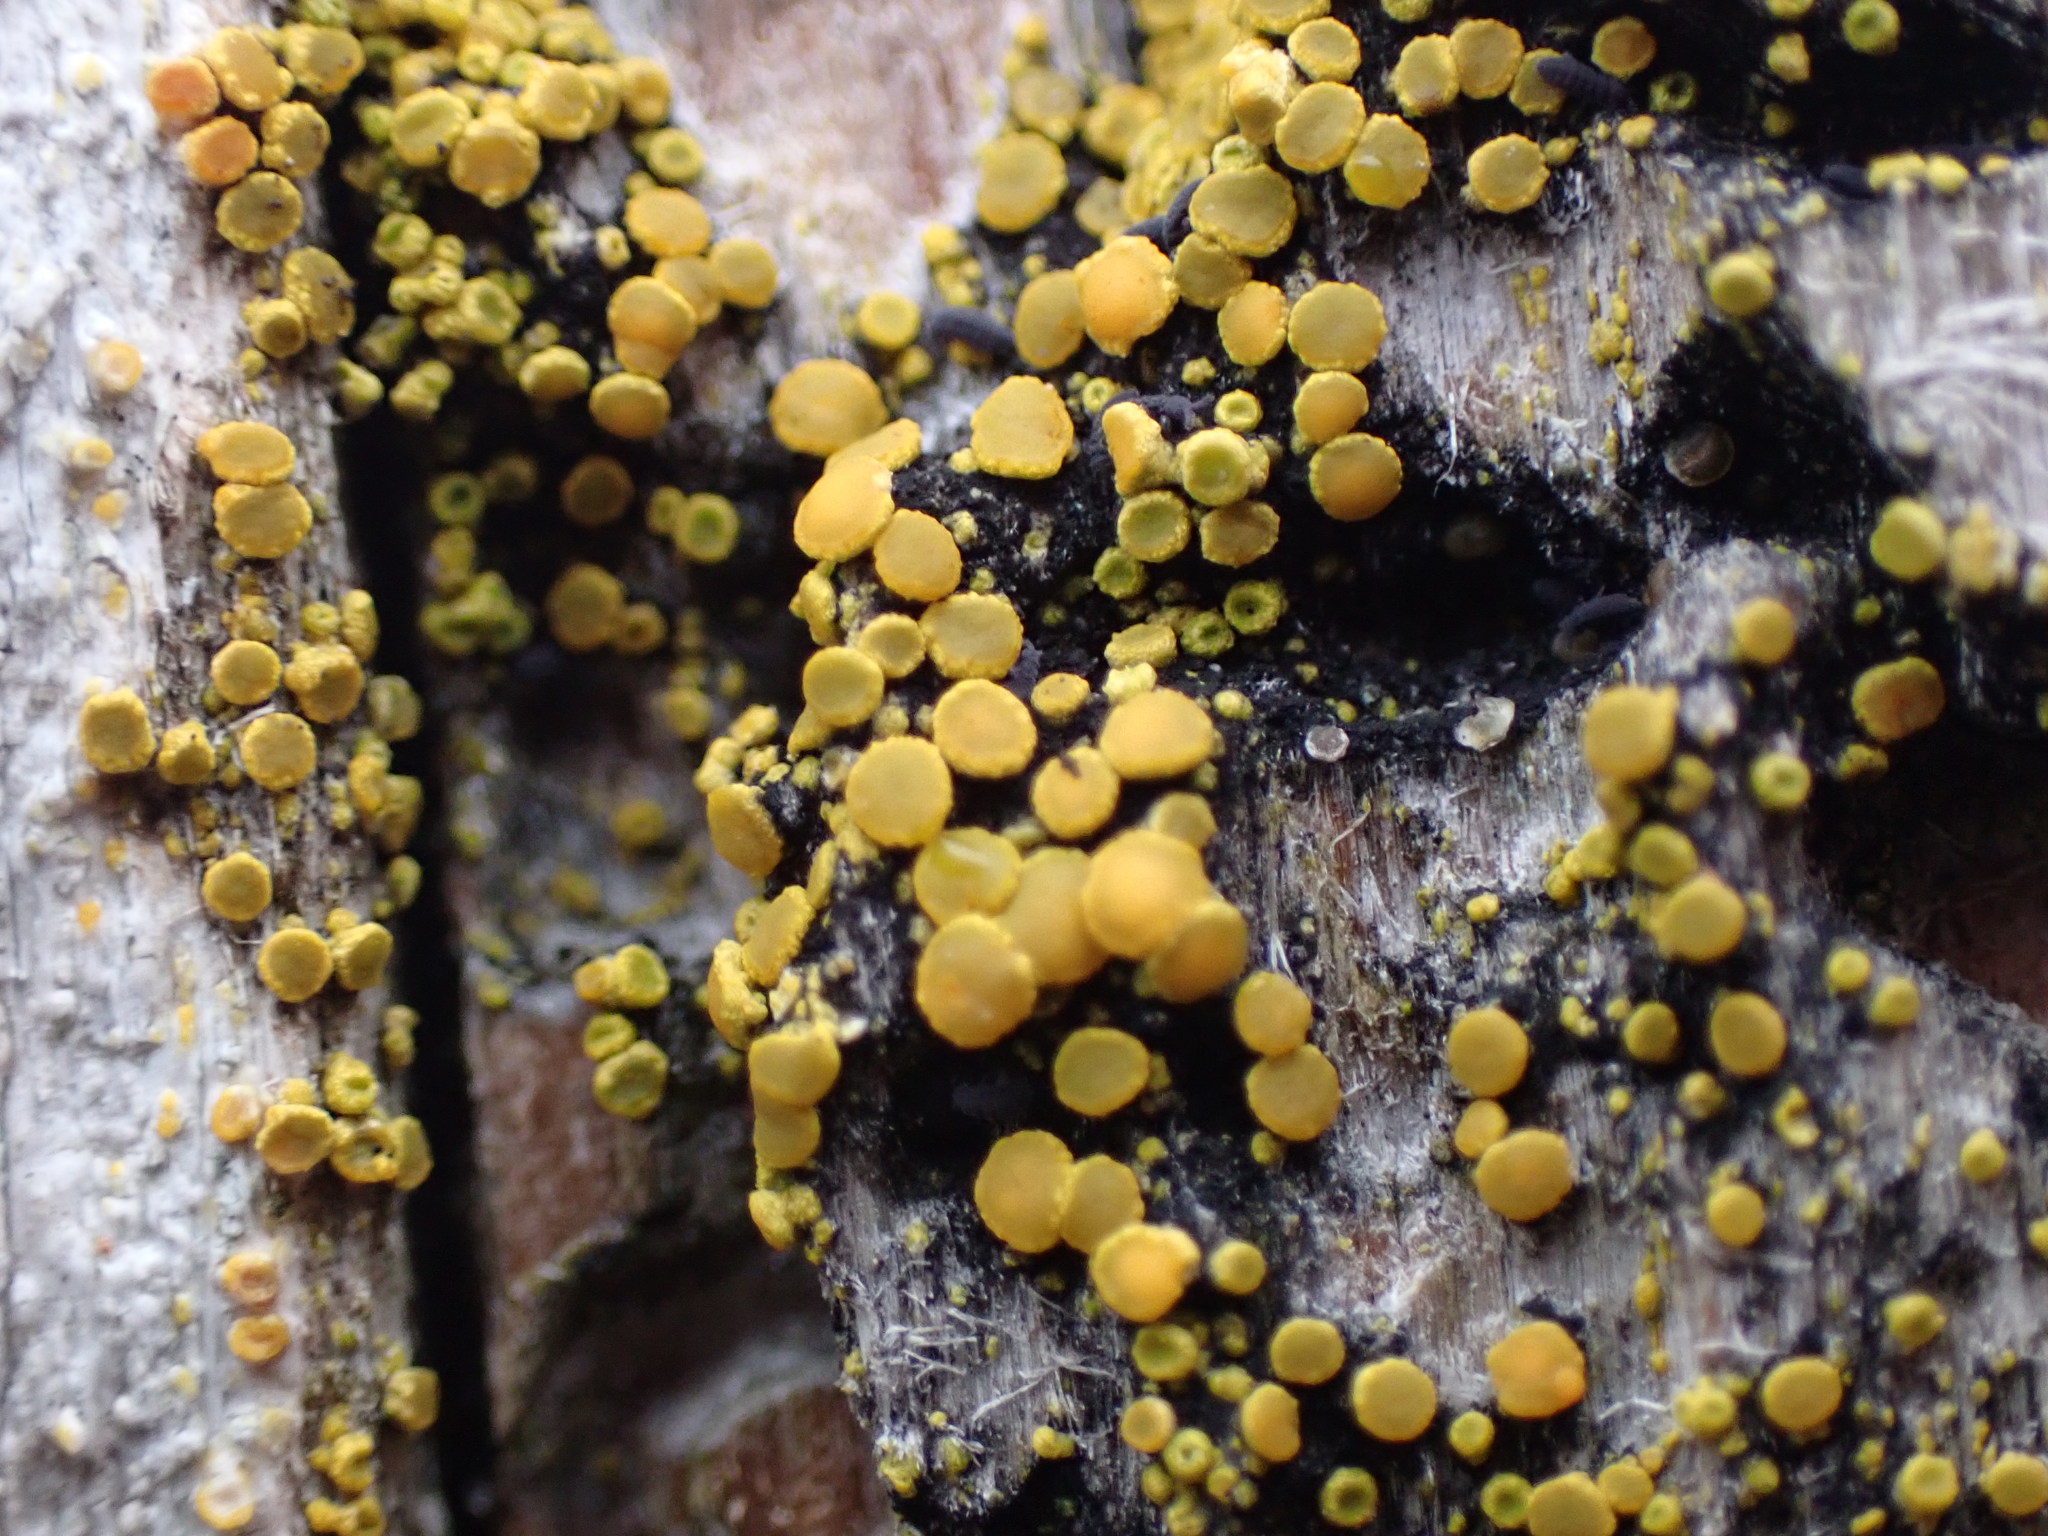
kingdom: Fungi
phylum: Ascomycota
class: Lecanoromycetes
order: Teloschistales
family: Teloschistaceae
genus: Polycauliona
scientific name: Polycauliona inconspecta
